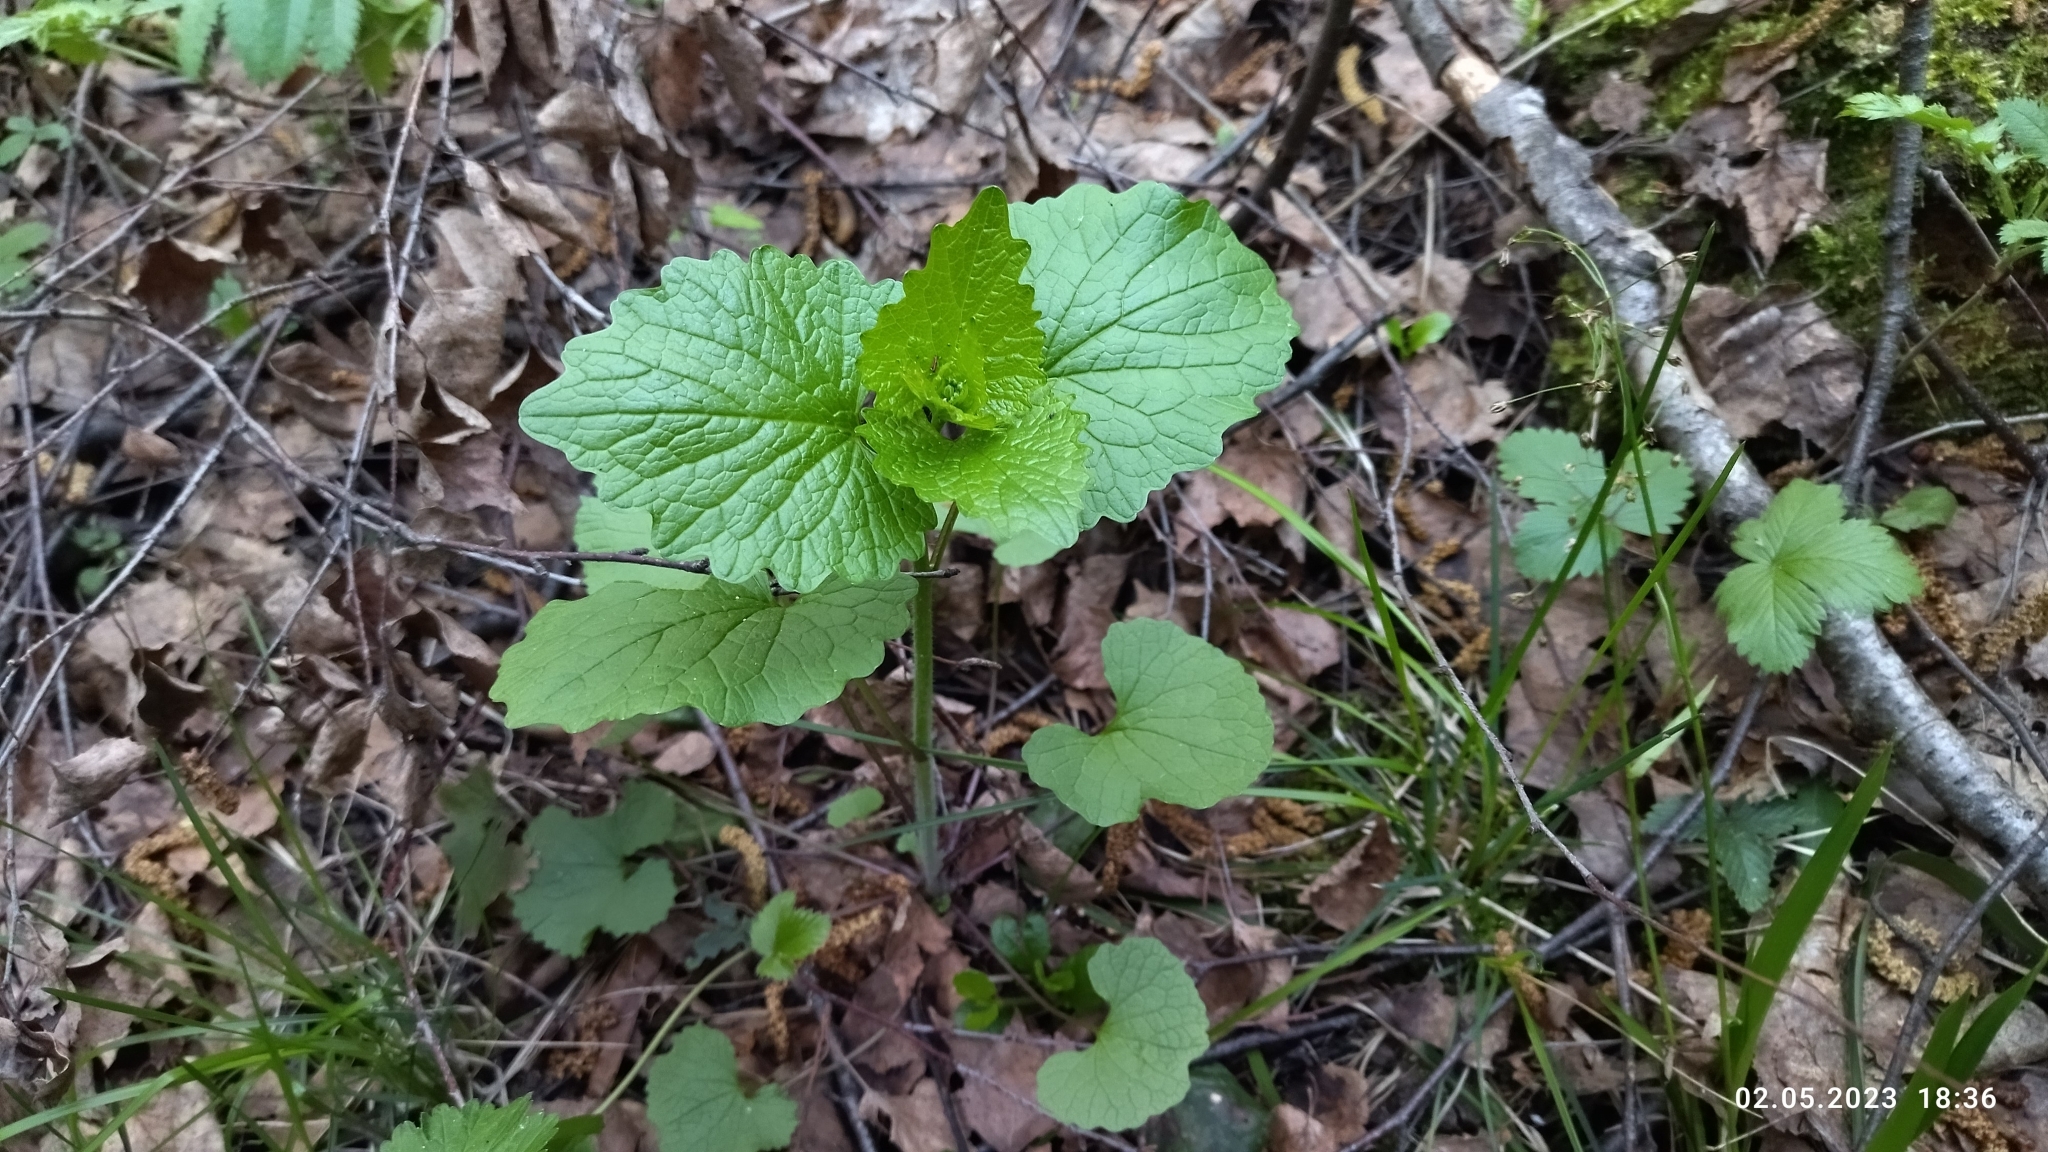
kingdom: Plantae
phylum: Tracheophyta
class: Magnoliopsida
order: Brassicales
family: Brassicaceae
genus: Alliaria
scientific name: Alliaria petiolata
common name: Garlic mustard
